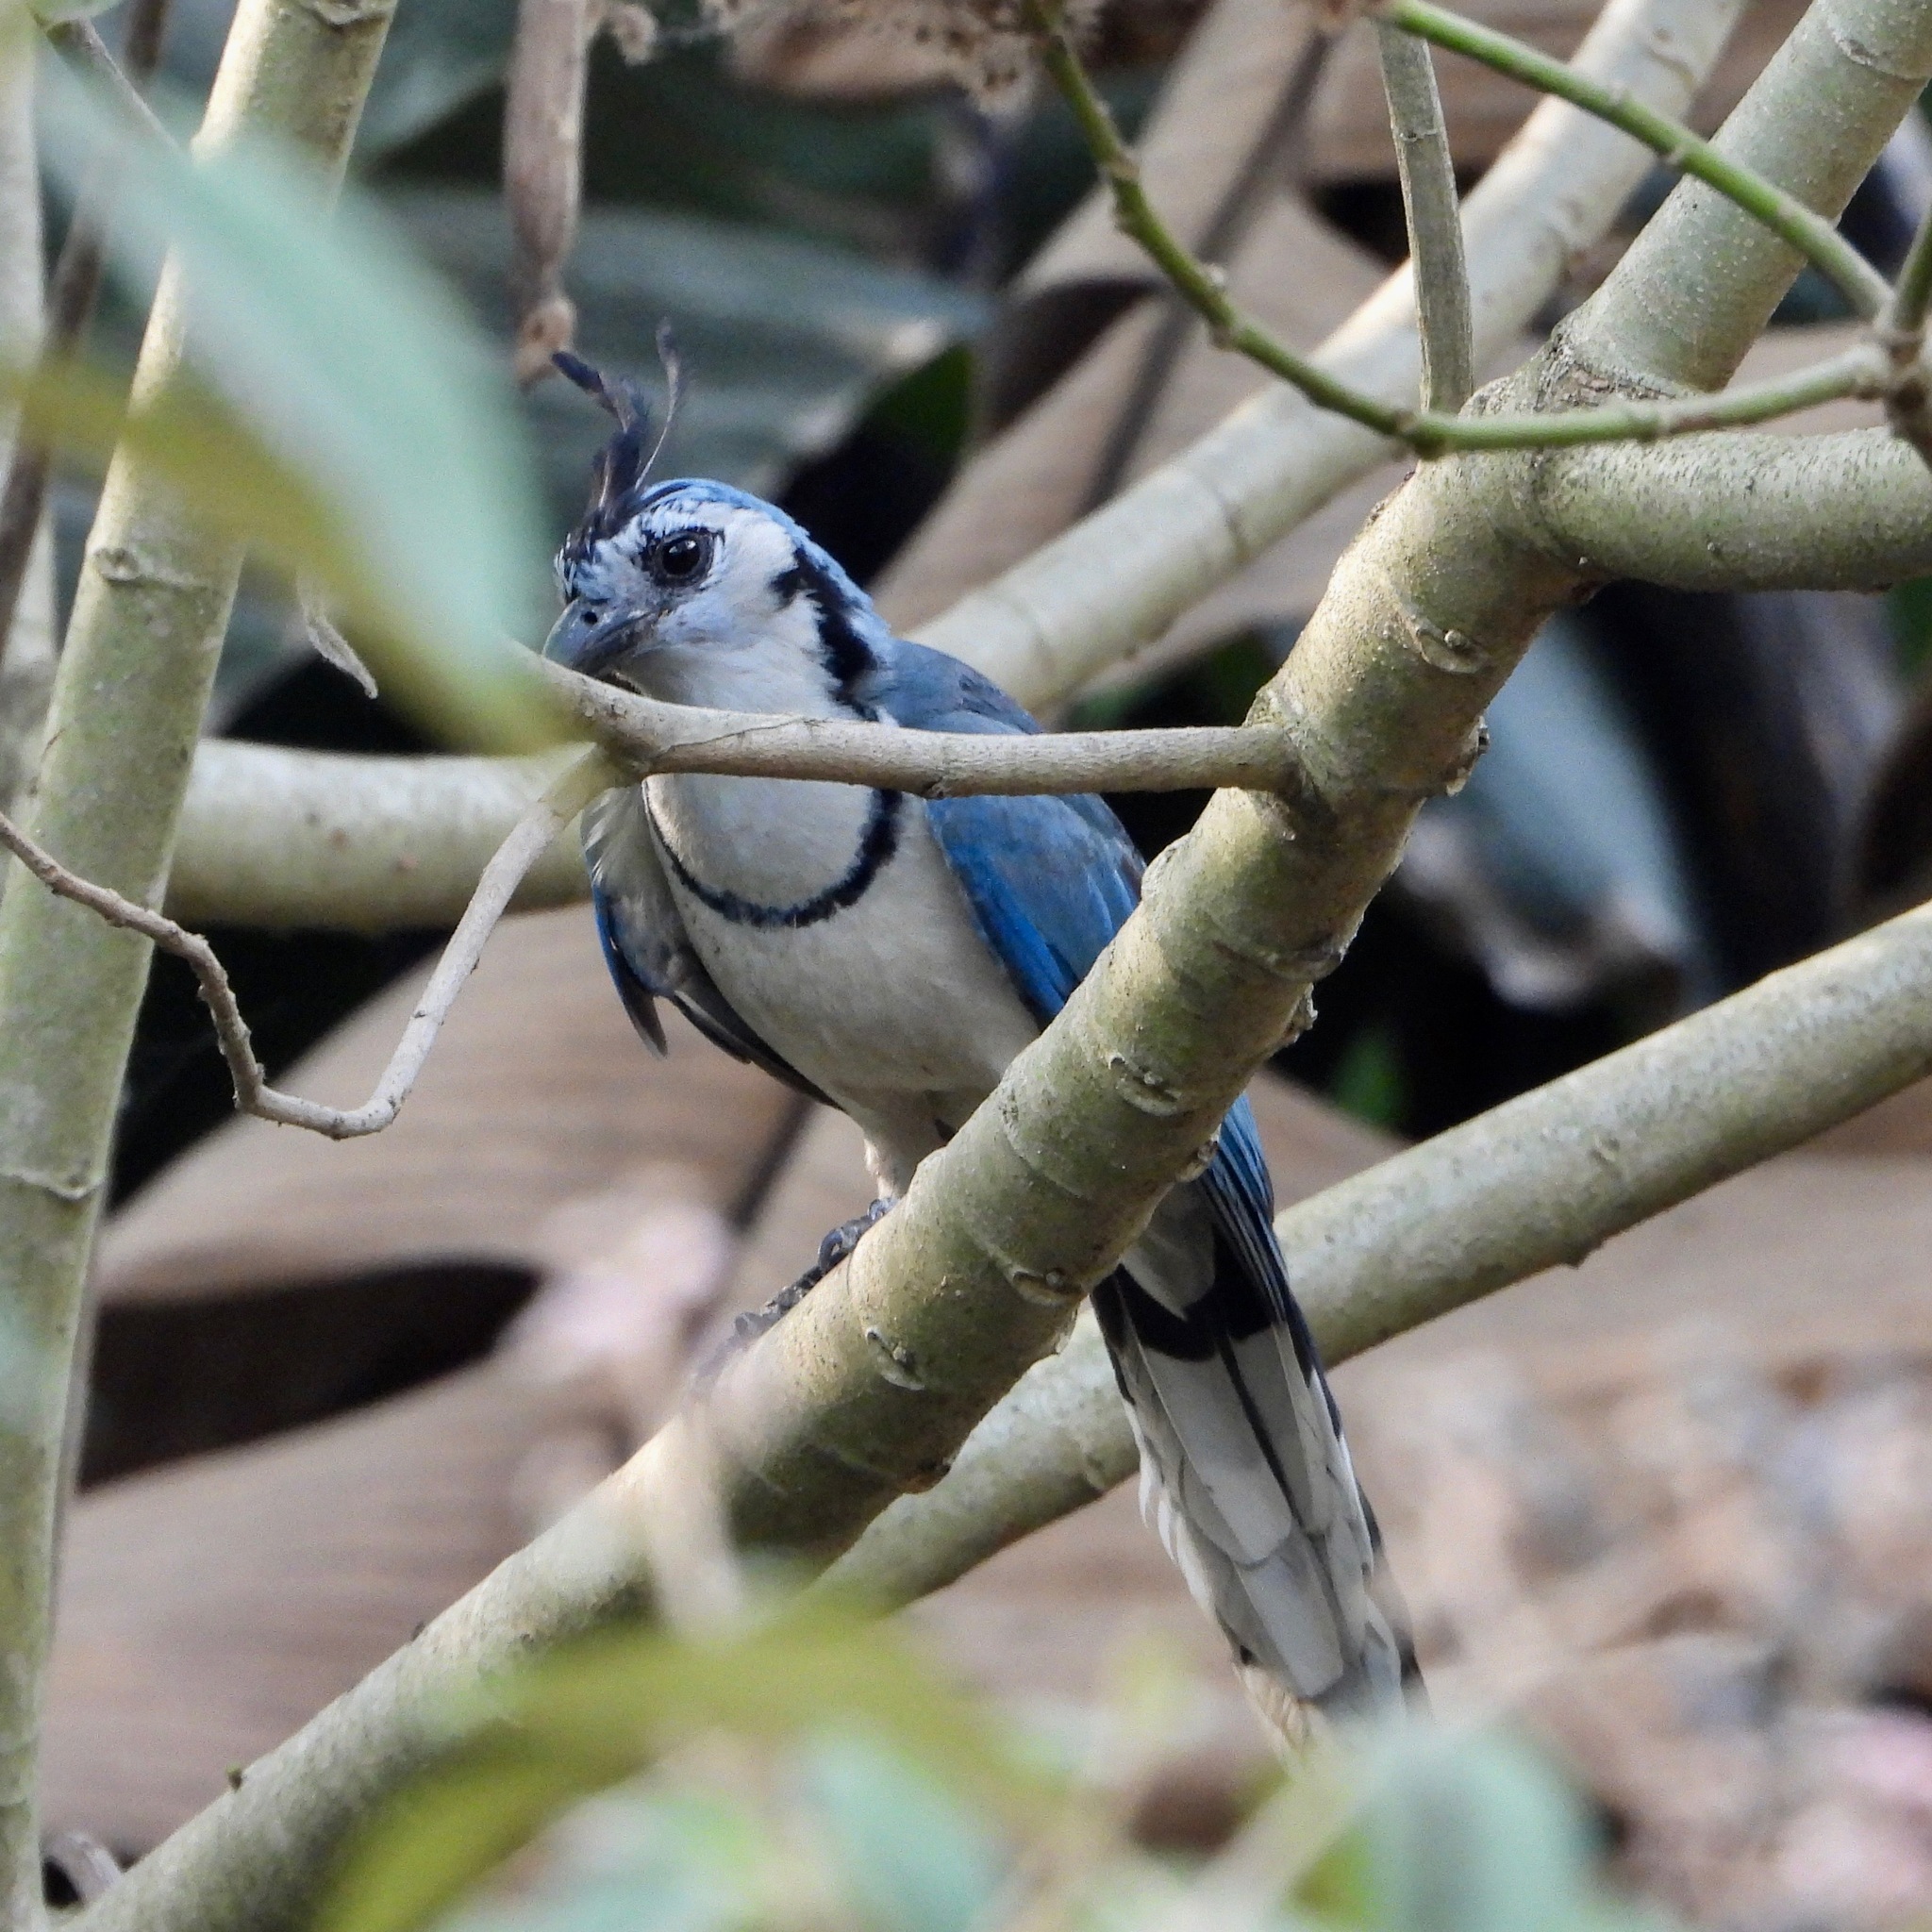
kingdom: Animalia
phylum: Chordata
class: Aves
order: Passeriformes
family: Corvidae
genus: Calocitta
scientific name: Calocitta formosa
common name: White-throated magpie-jay
